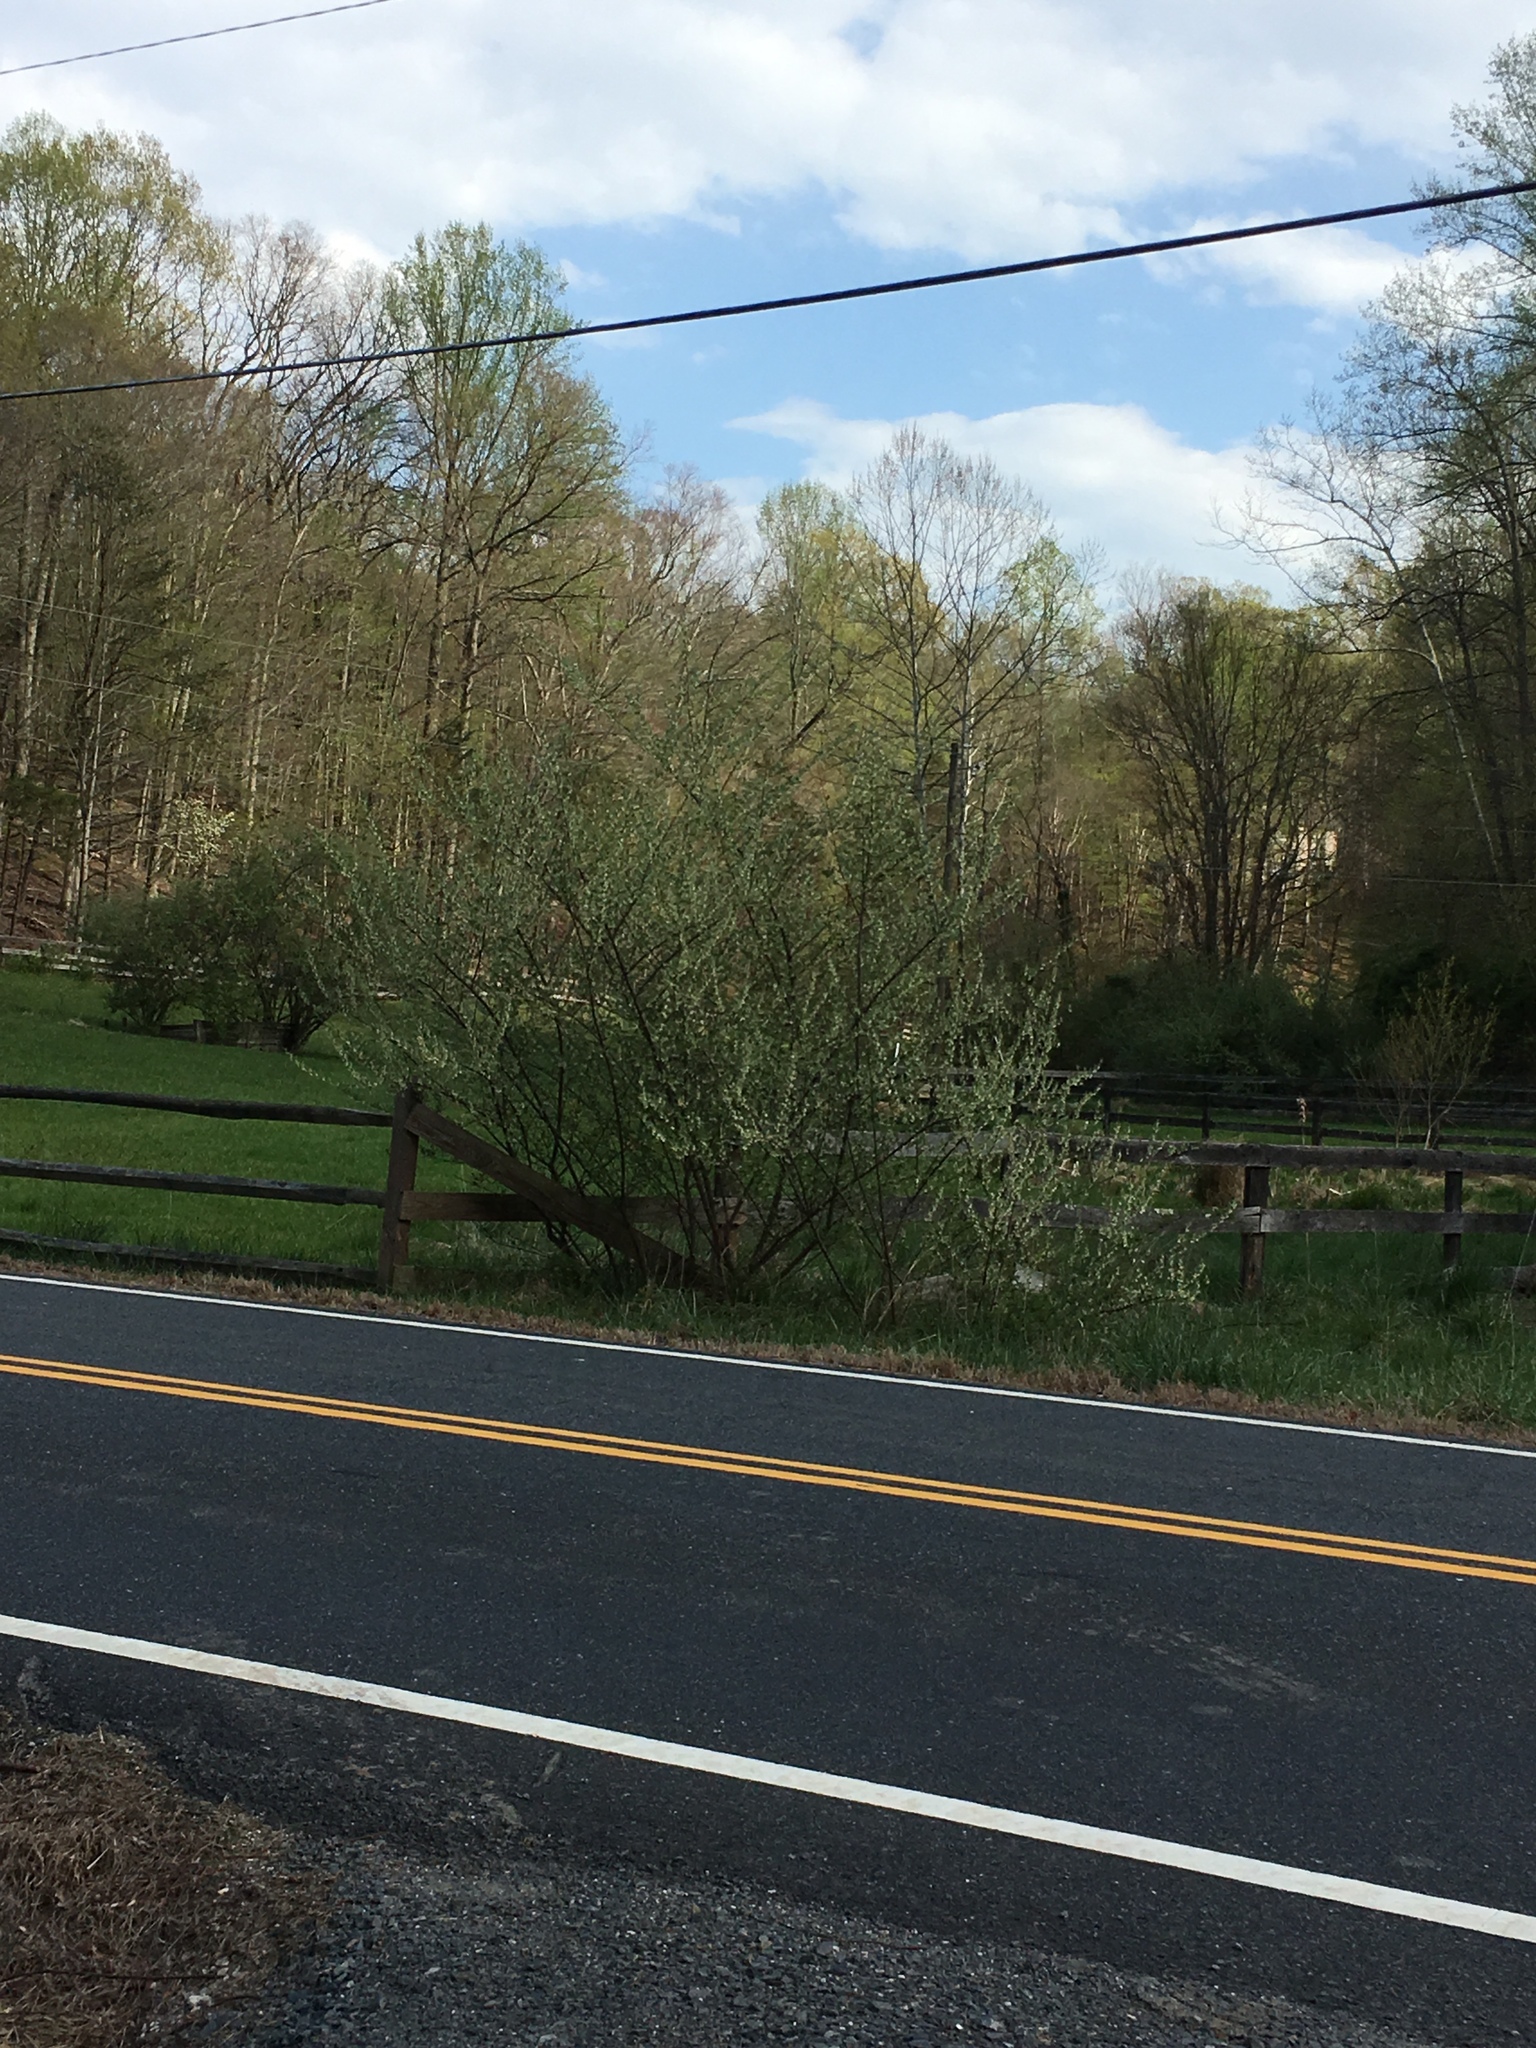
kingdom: Plantae
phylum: Tracheophyta
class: Magnoliopsida
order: Rosales
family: Elaeagnaceae
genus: Elaeagnus
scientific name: Elaeagnus umbellata
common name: Autumn olive
